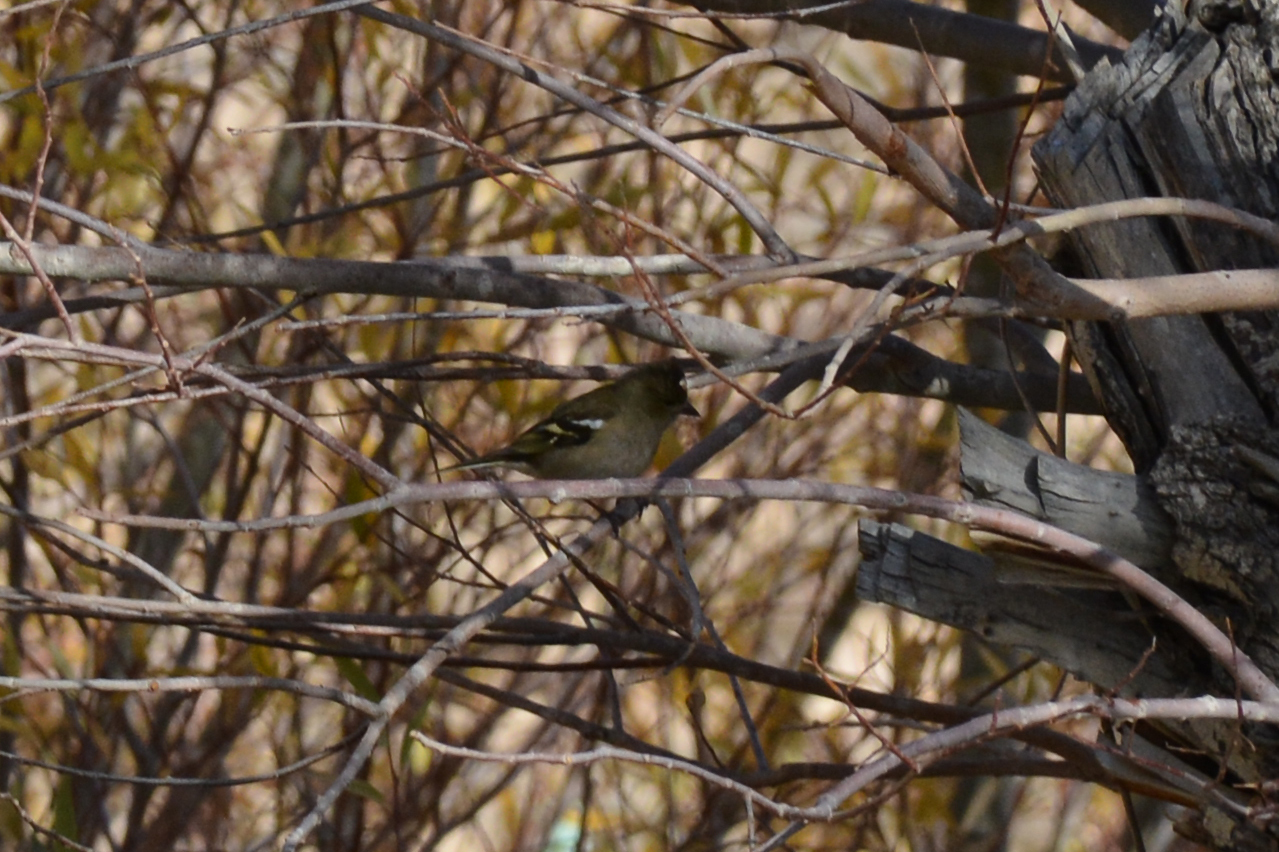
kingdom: Animalia
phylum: Chordata
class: Aves
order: Passeriformes
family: Fringillidae
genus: Fringilla
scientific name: Fringilla coelebs
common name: Common chaffinch
